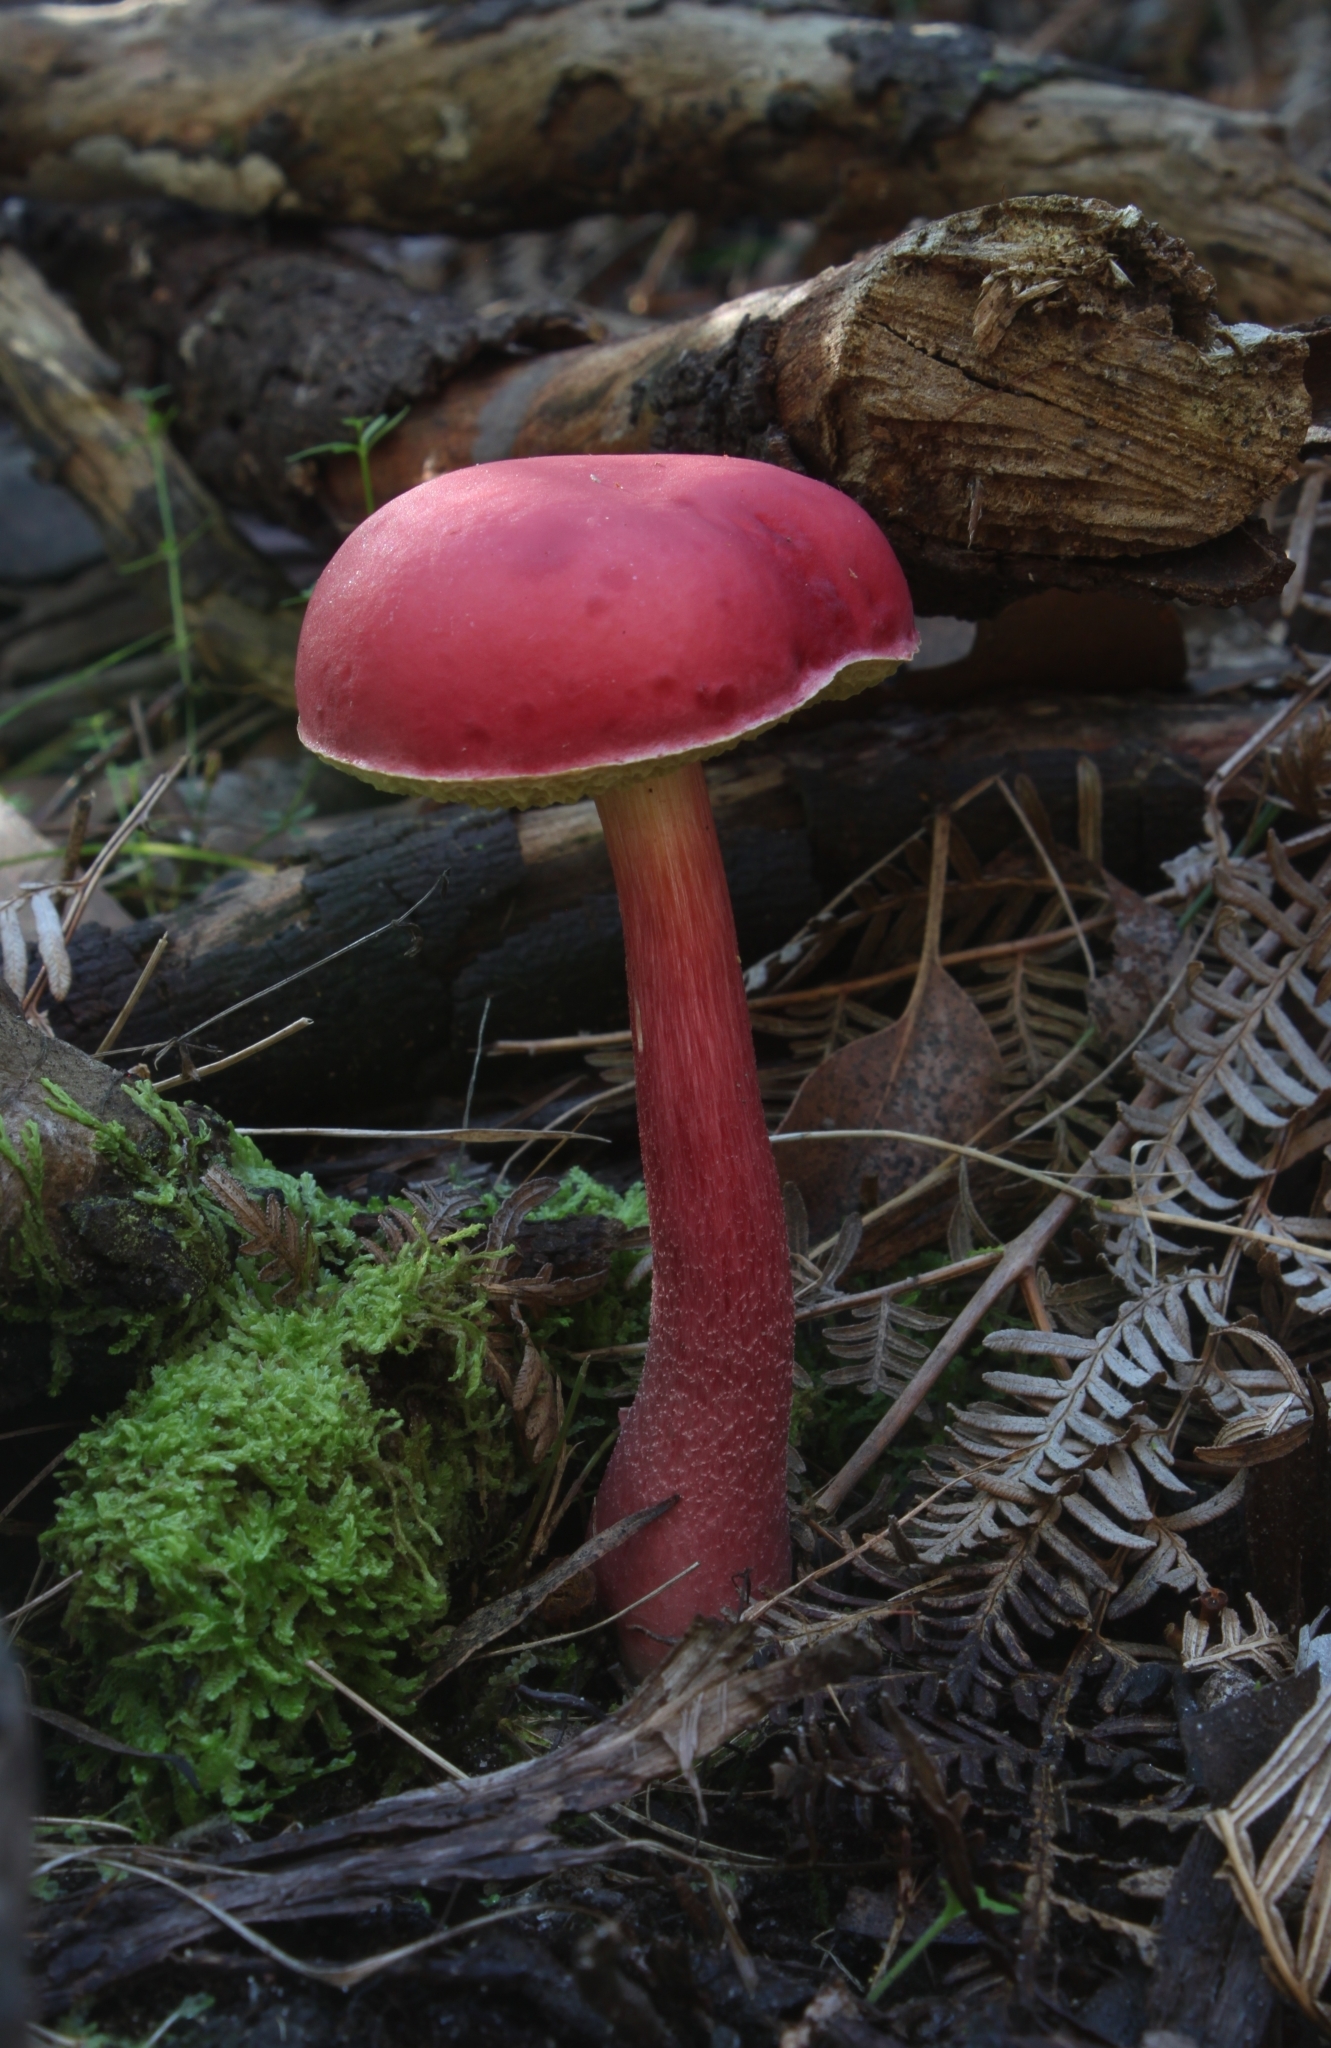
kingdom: Fungi
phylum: Basidiomycota
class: Agaricomycetes
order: Boletales
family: Boletaceae
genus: Boletellus
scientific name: Boletellus obscurecoccineus
